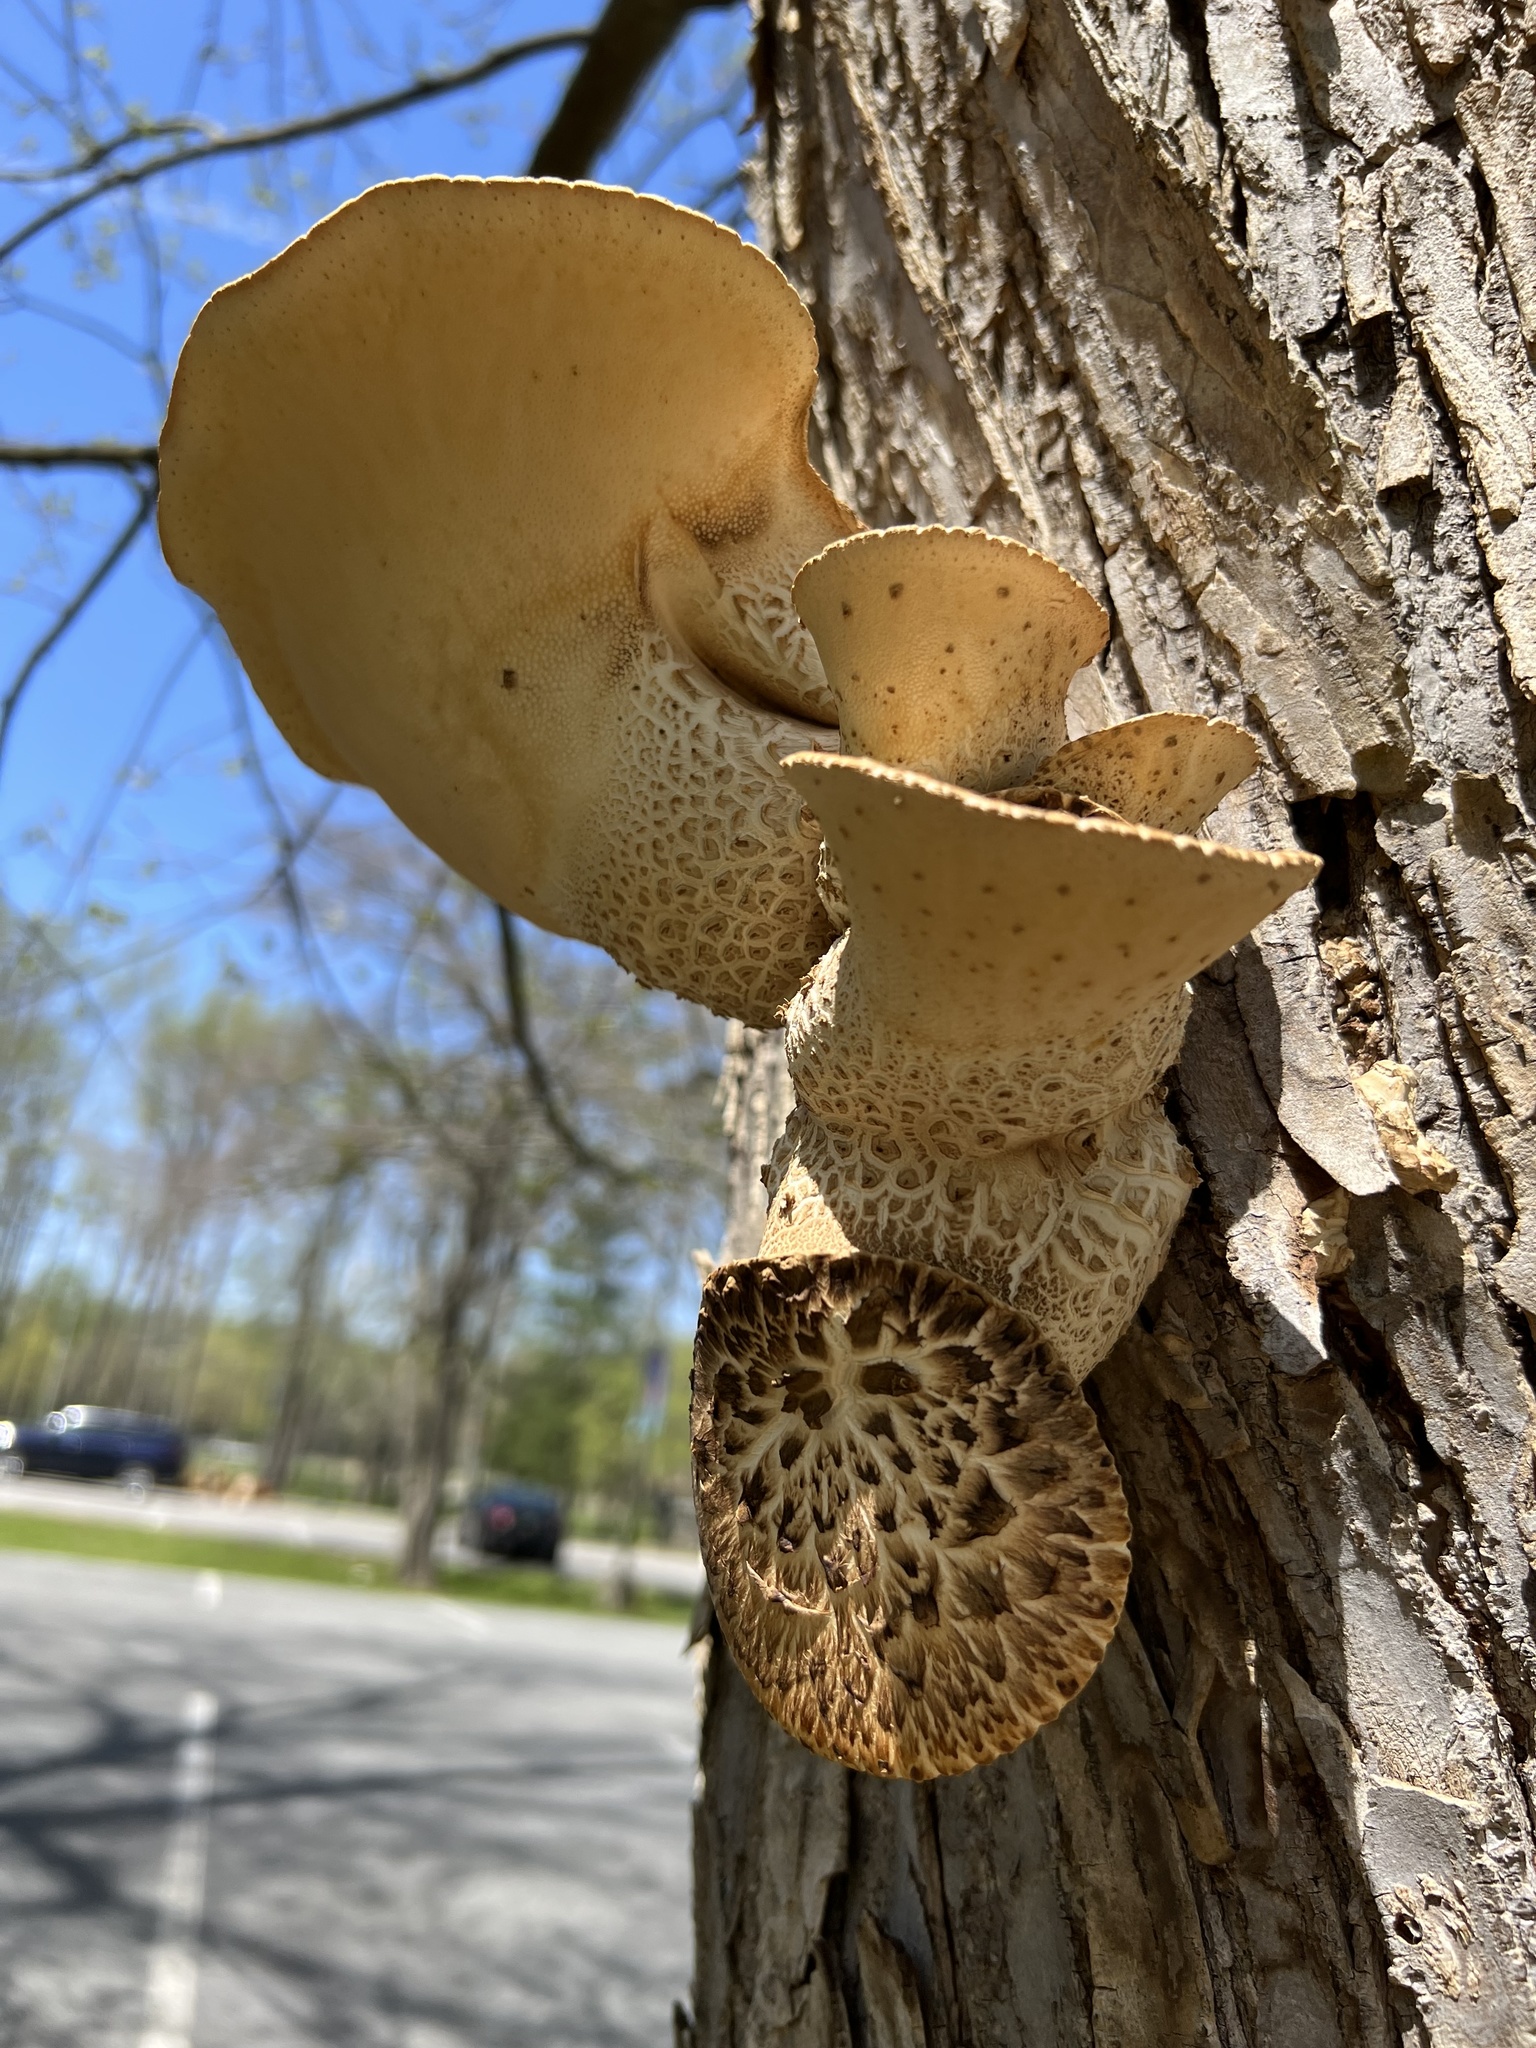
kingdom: Fungi
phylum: Basidiomycota
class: Agaricomycetes
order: Polyporales
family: Polyporaceae
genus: Cerioporus
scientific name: Cerioporus squamosus
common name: Dryad's saddle
